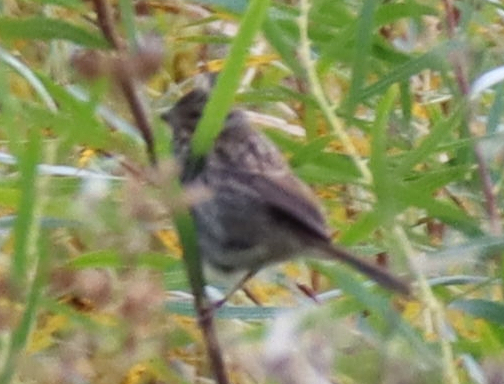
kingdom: Animalia
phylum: Chordata
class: Aves
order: Passeriformes
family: Passerellidae
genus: Melospiza
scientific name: Melospiza melodia
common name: Song sparrow
